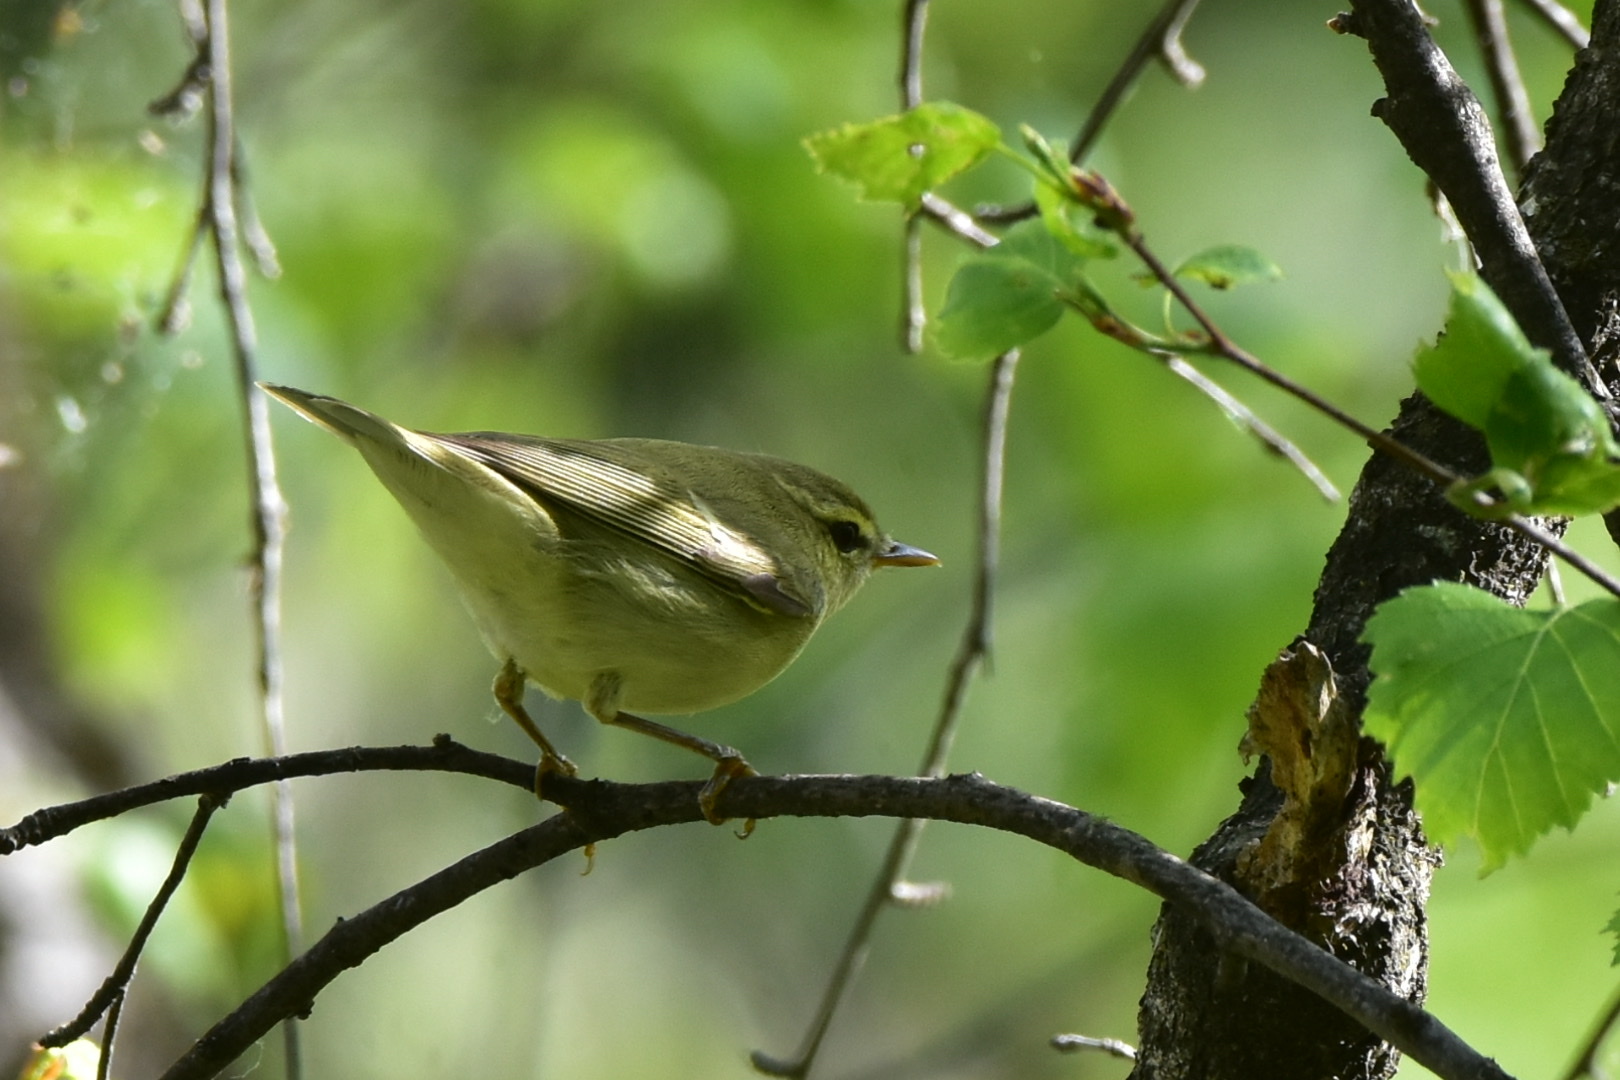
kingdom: Animalia
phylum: Chordata
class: Aves
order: Passeriformes
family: Phylloscopidae
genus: Phylloscopus
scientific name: Phylloscopus nitidus
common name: Green warbler
